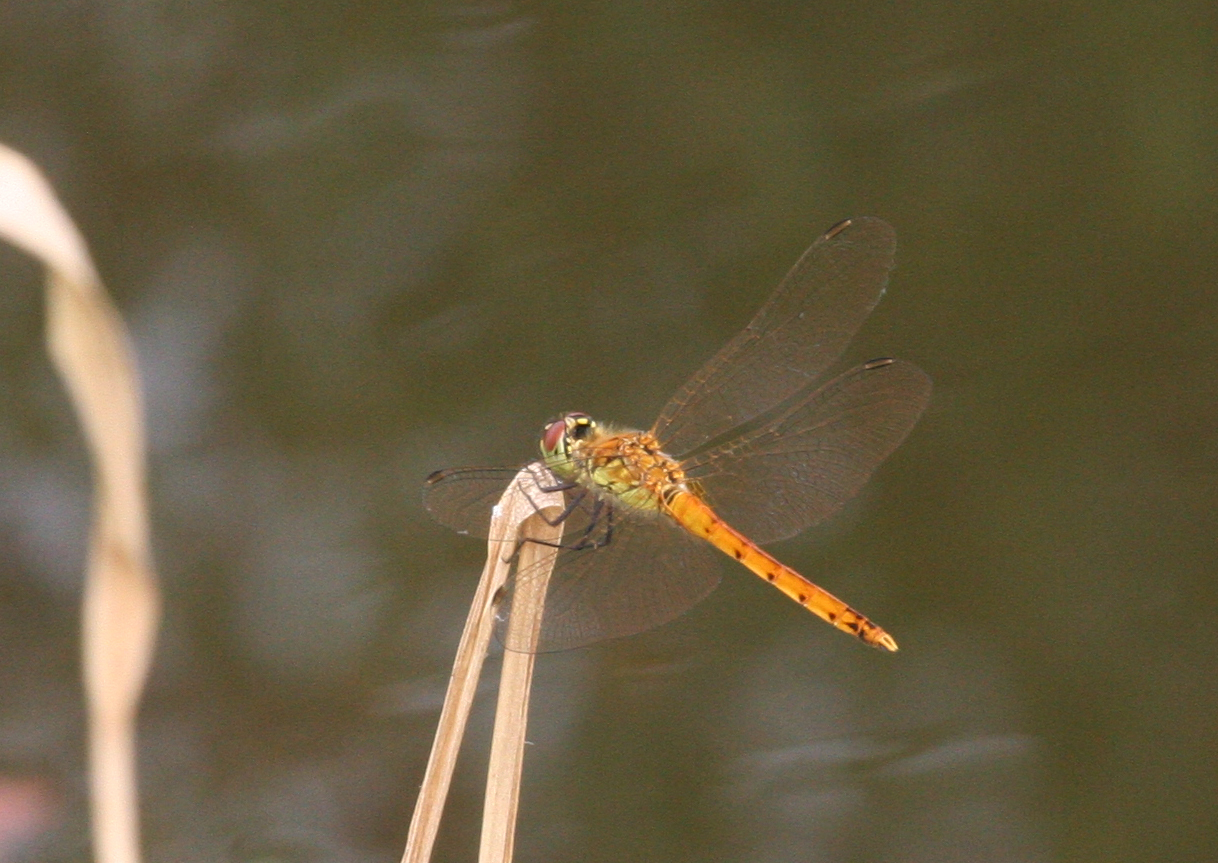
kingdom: Animalia
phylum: Arthropoda
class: Insecta
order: Odonata
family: Libellulidae
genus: Sympetrum
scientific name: Sympetrum depressiusculum
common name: Spotted darter
